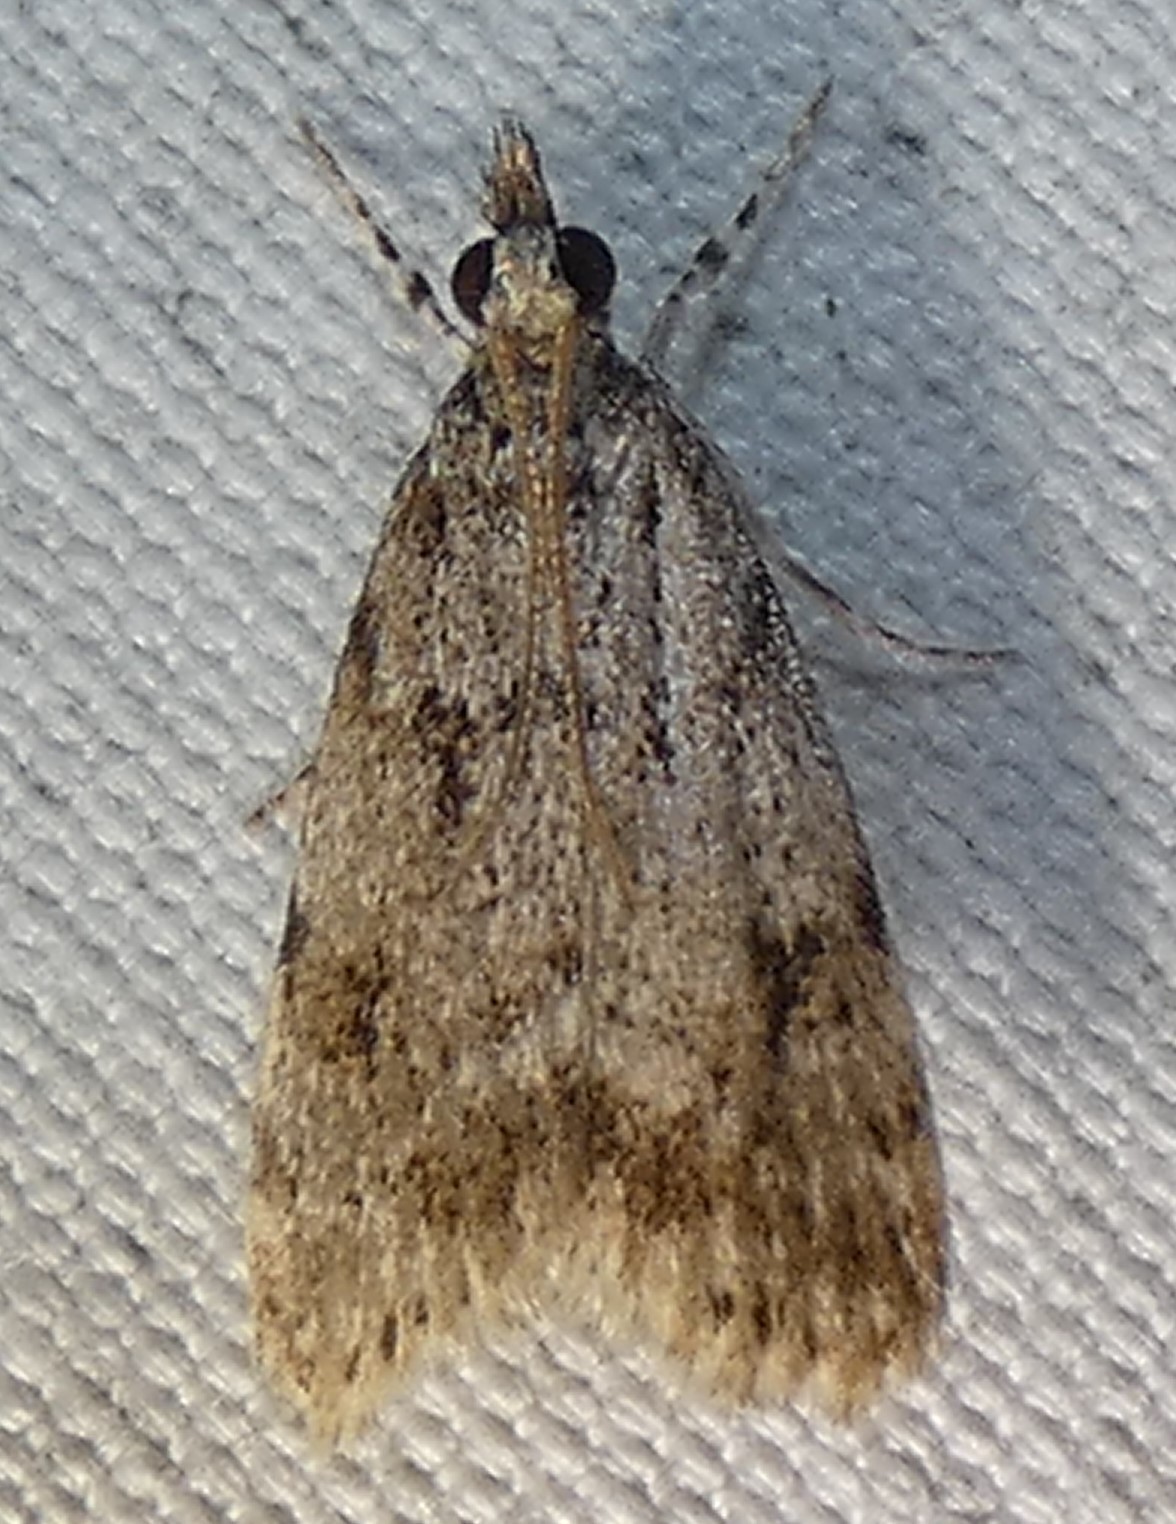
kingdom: Animalia
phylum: Arthropoda
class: Insecta
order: Lepidoptera
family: Crambidae
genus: Scoparia
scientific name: Scoparia basalis
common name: Many-spotted scoparia moth
